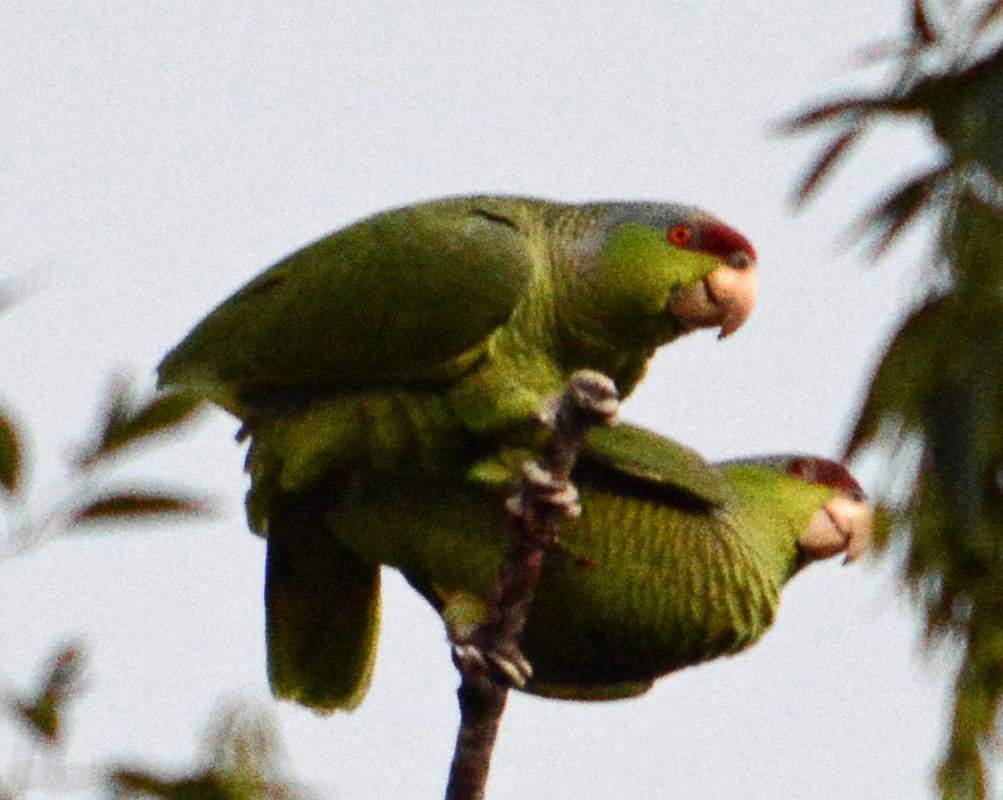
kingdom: Animalia
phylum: Chordata
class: Aves
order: Psittaciformes
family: Psittacidae
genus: Amazona
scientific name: Amazona finschi
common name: Lilac-crowned amazon
